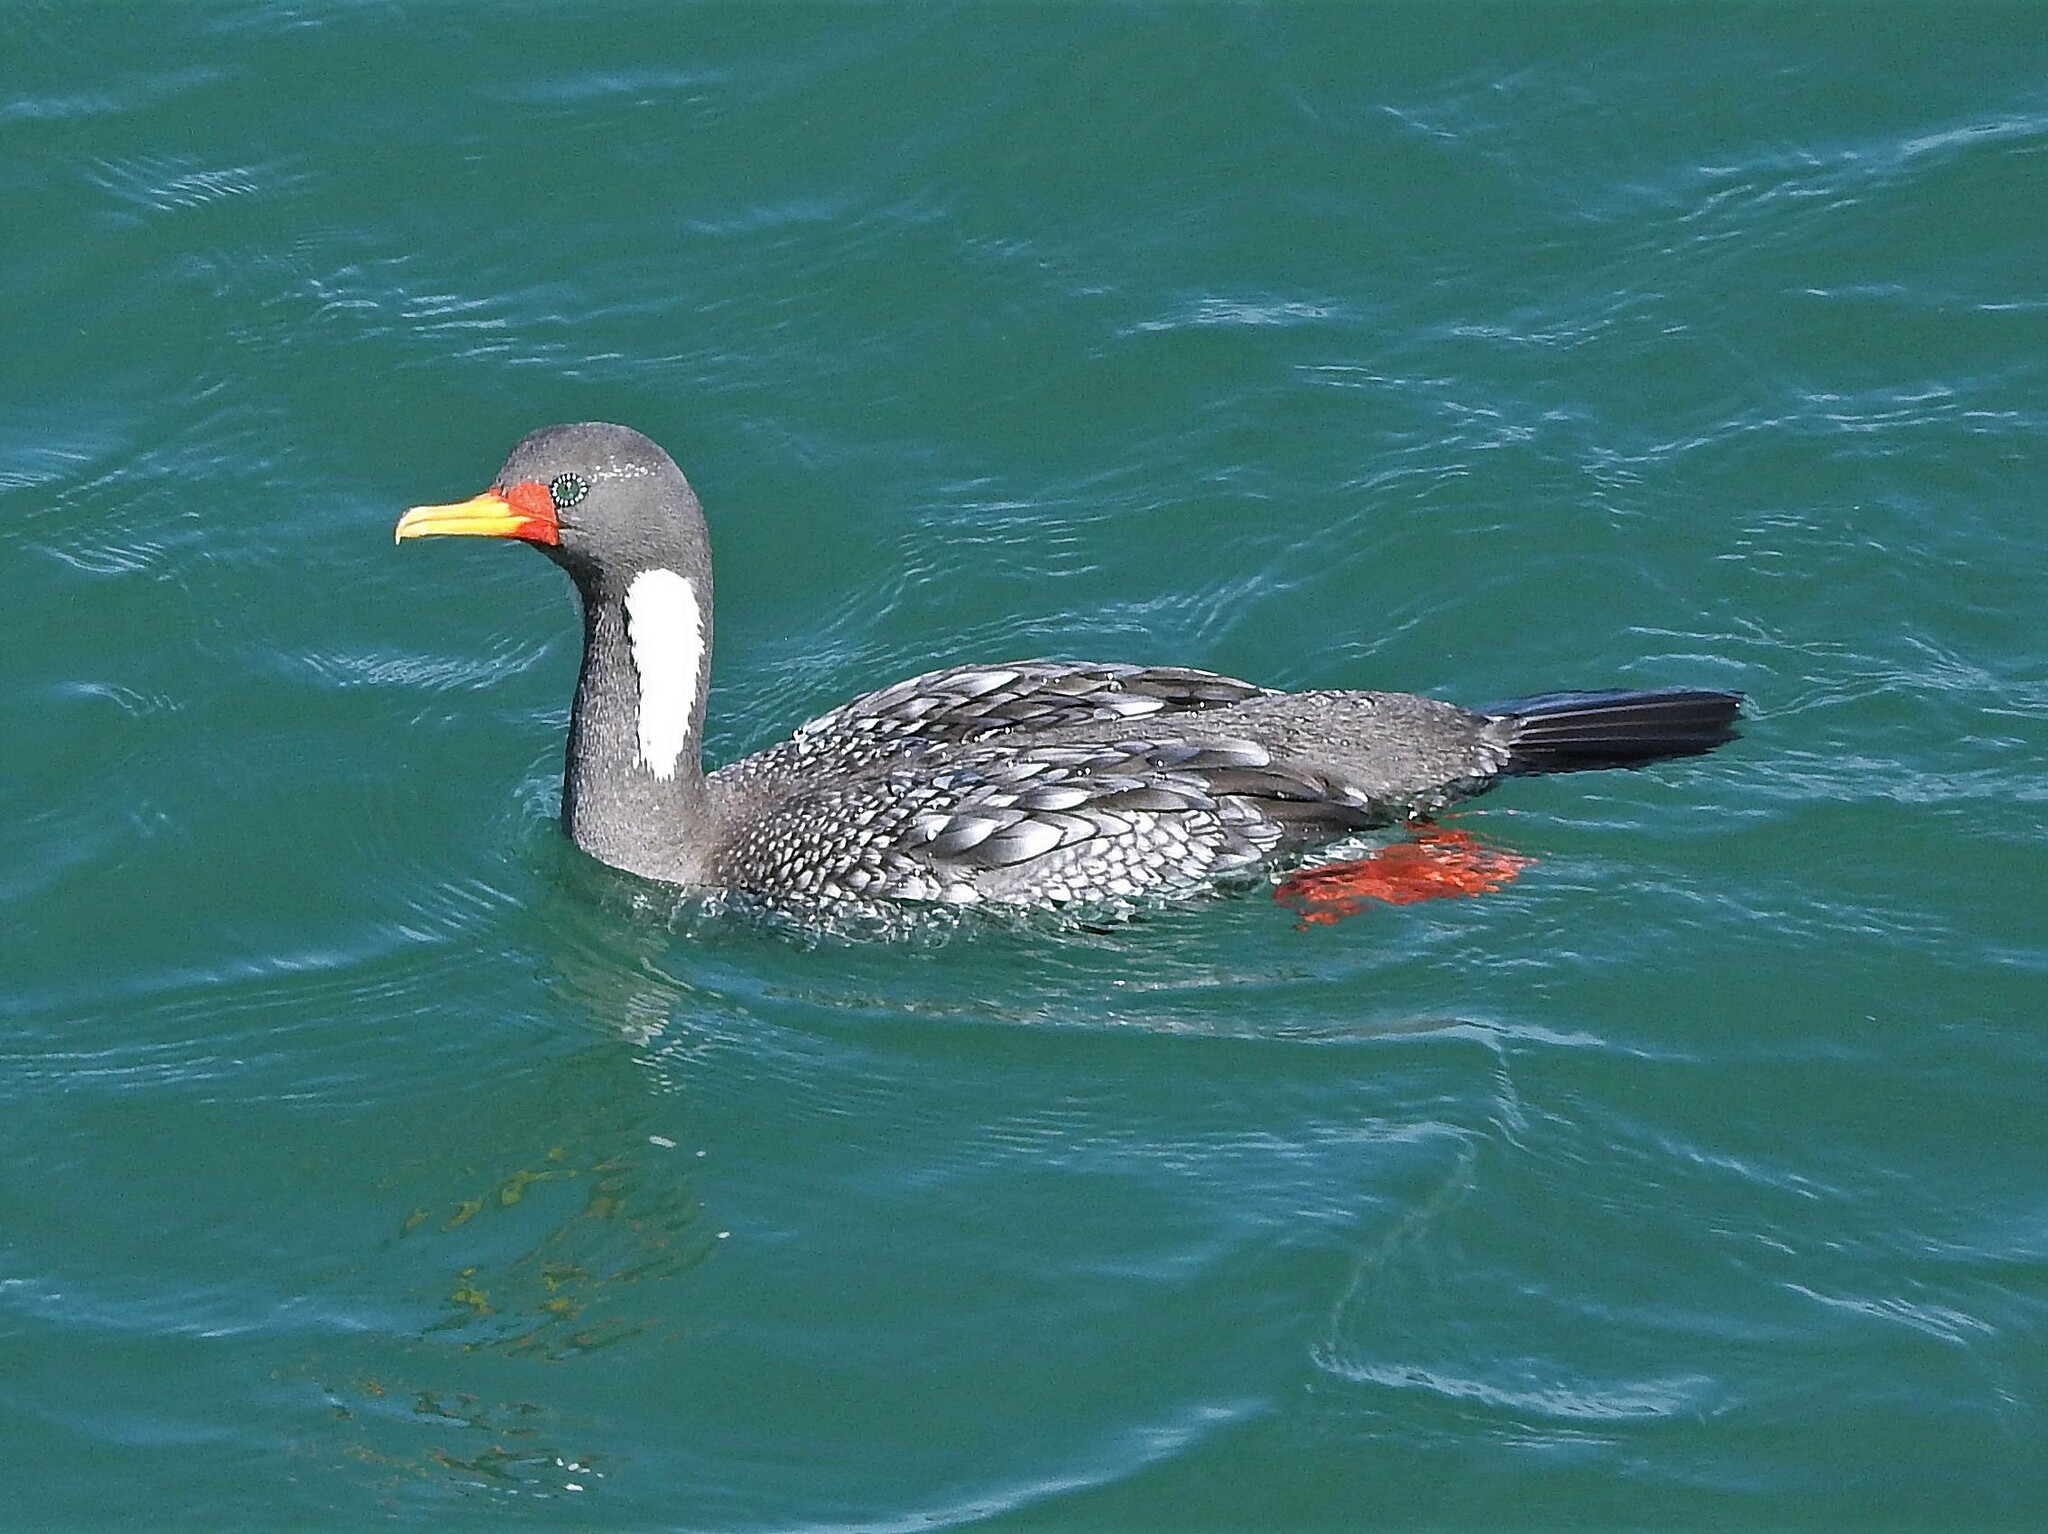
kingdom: Animalia
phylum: Chordata
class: Aves
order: Suliformes
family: Phalacrocoracidae
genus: Phalacrocorax
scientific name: Phalacrocorax gaimardi
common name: Red-legged cormorant
